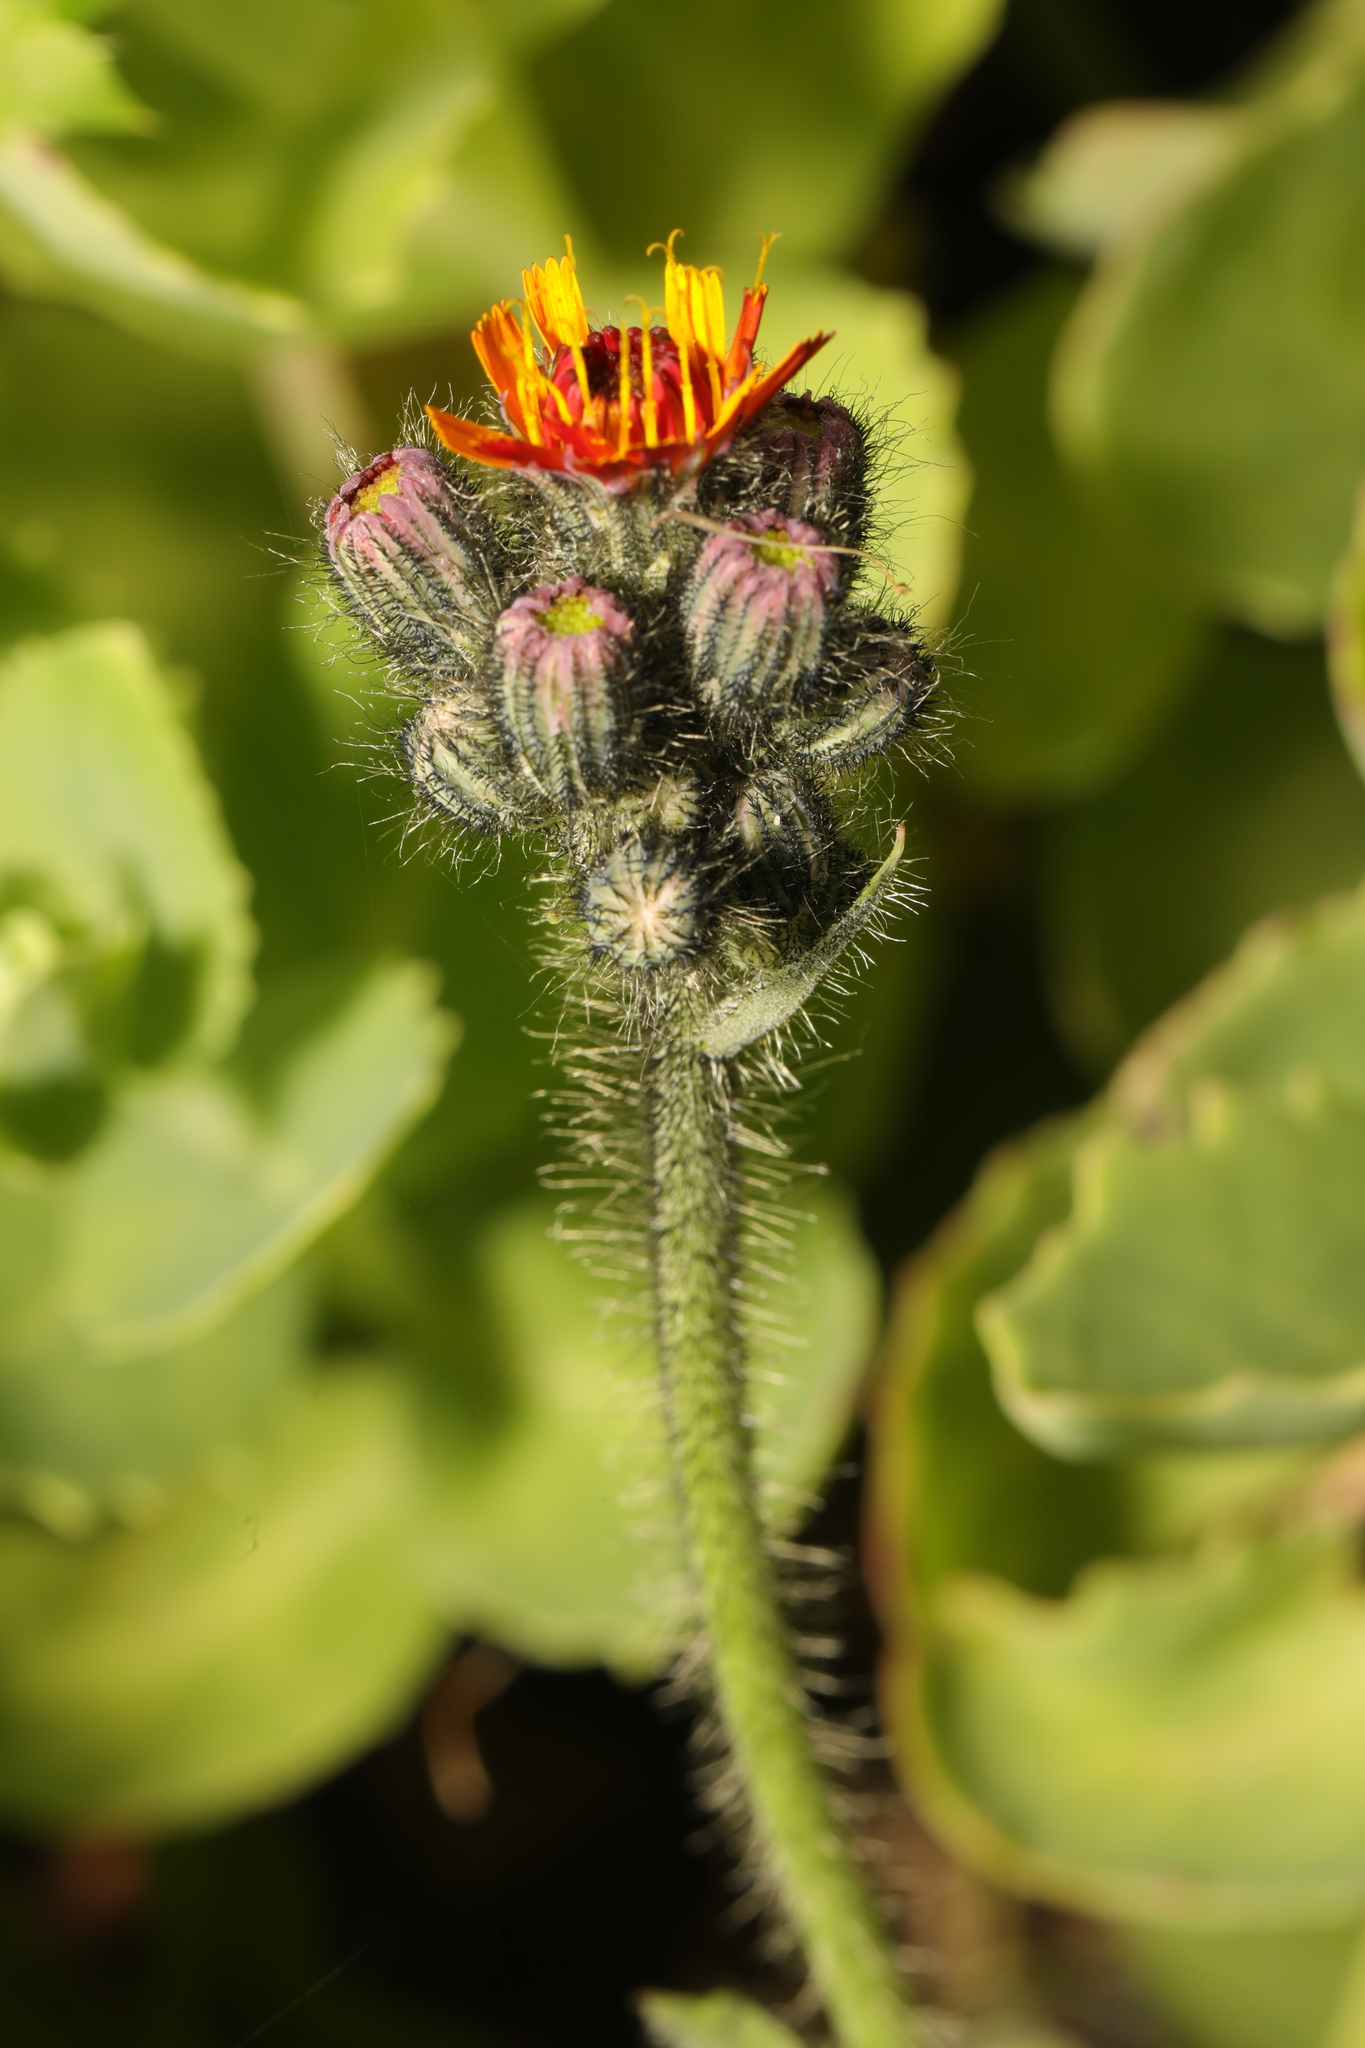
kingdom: Plantae
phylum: Tracheophyta
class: Magnoliopsida
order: Asterales
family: Asteraceae
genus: Pilosella
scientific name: Pilosella aurantiaca
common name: Fox-and-cubs
